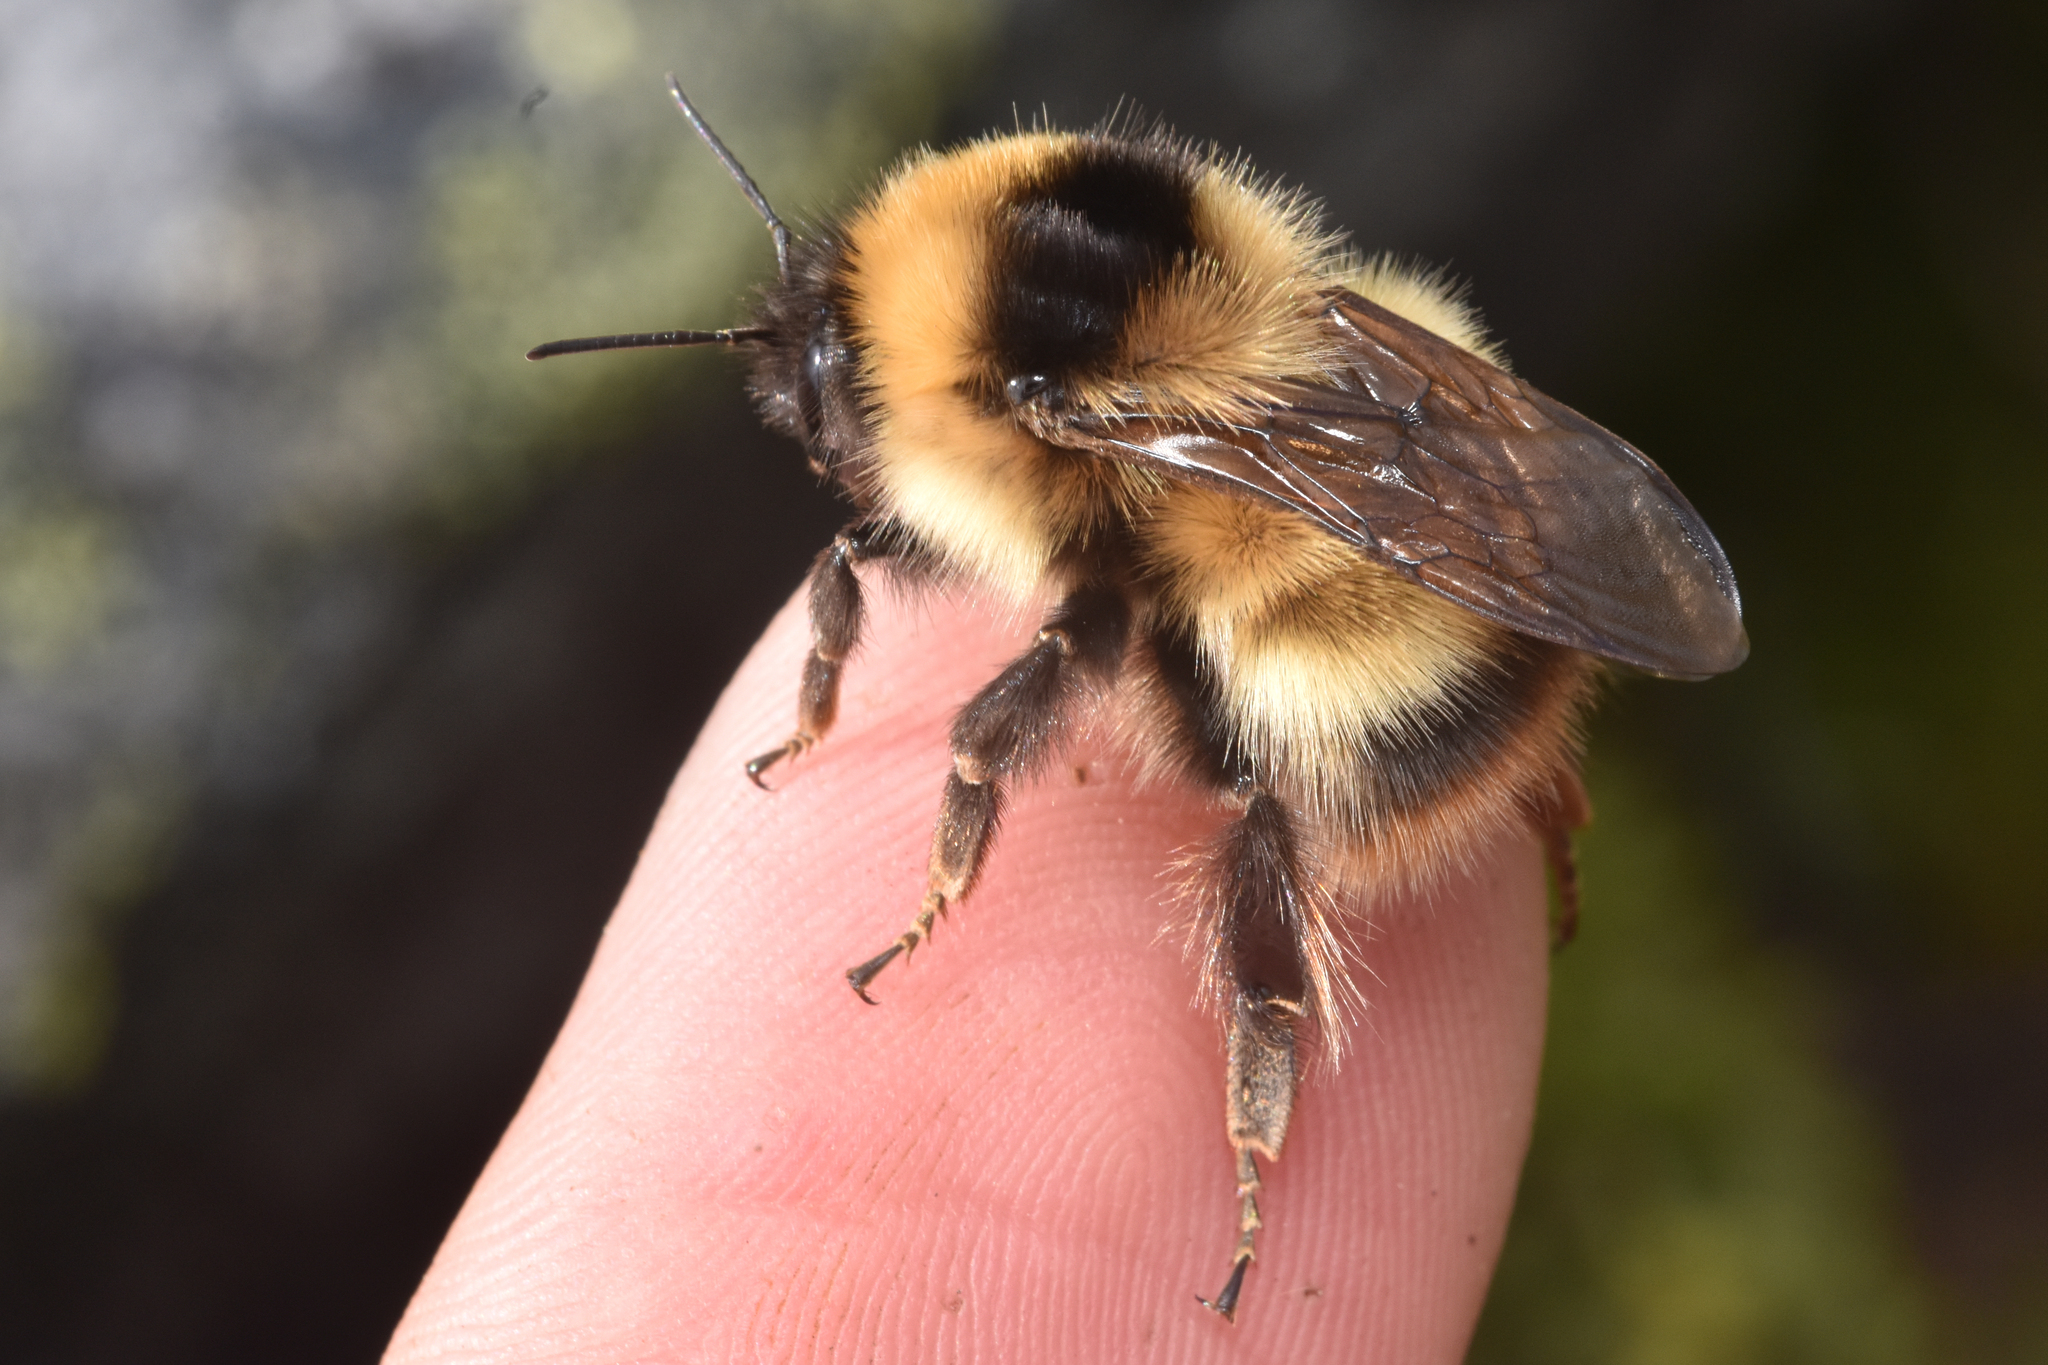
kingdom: Animalia
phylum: Arthropoda
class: Insecta
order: Hymenoptera
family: Apidae
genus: Bombus
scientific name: Bombus kirbiellus
